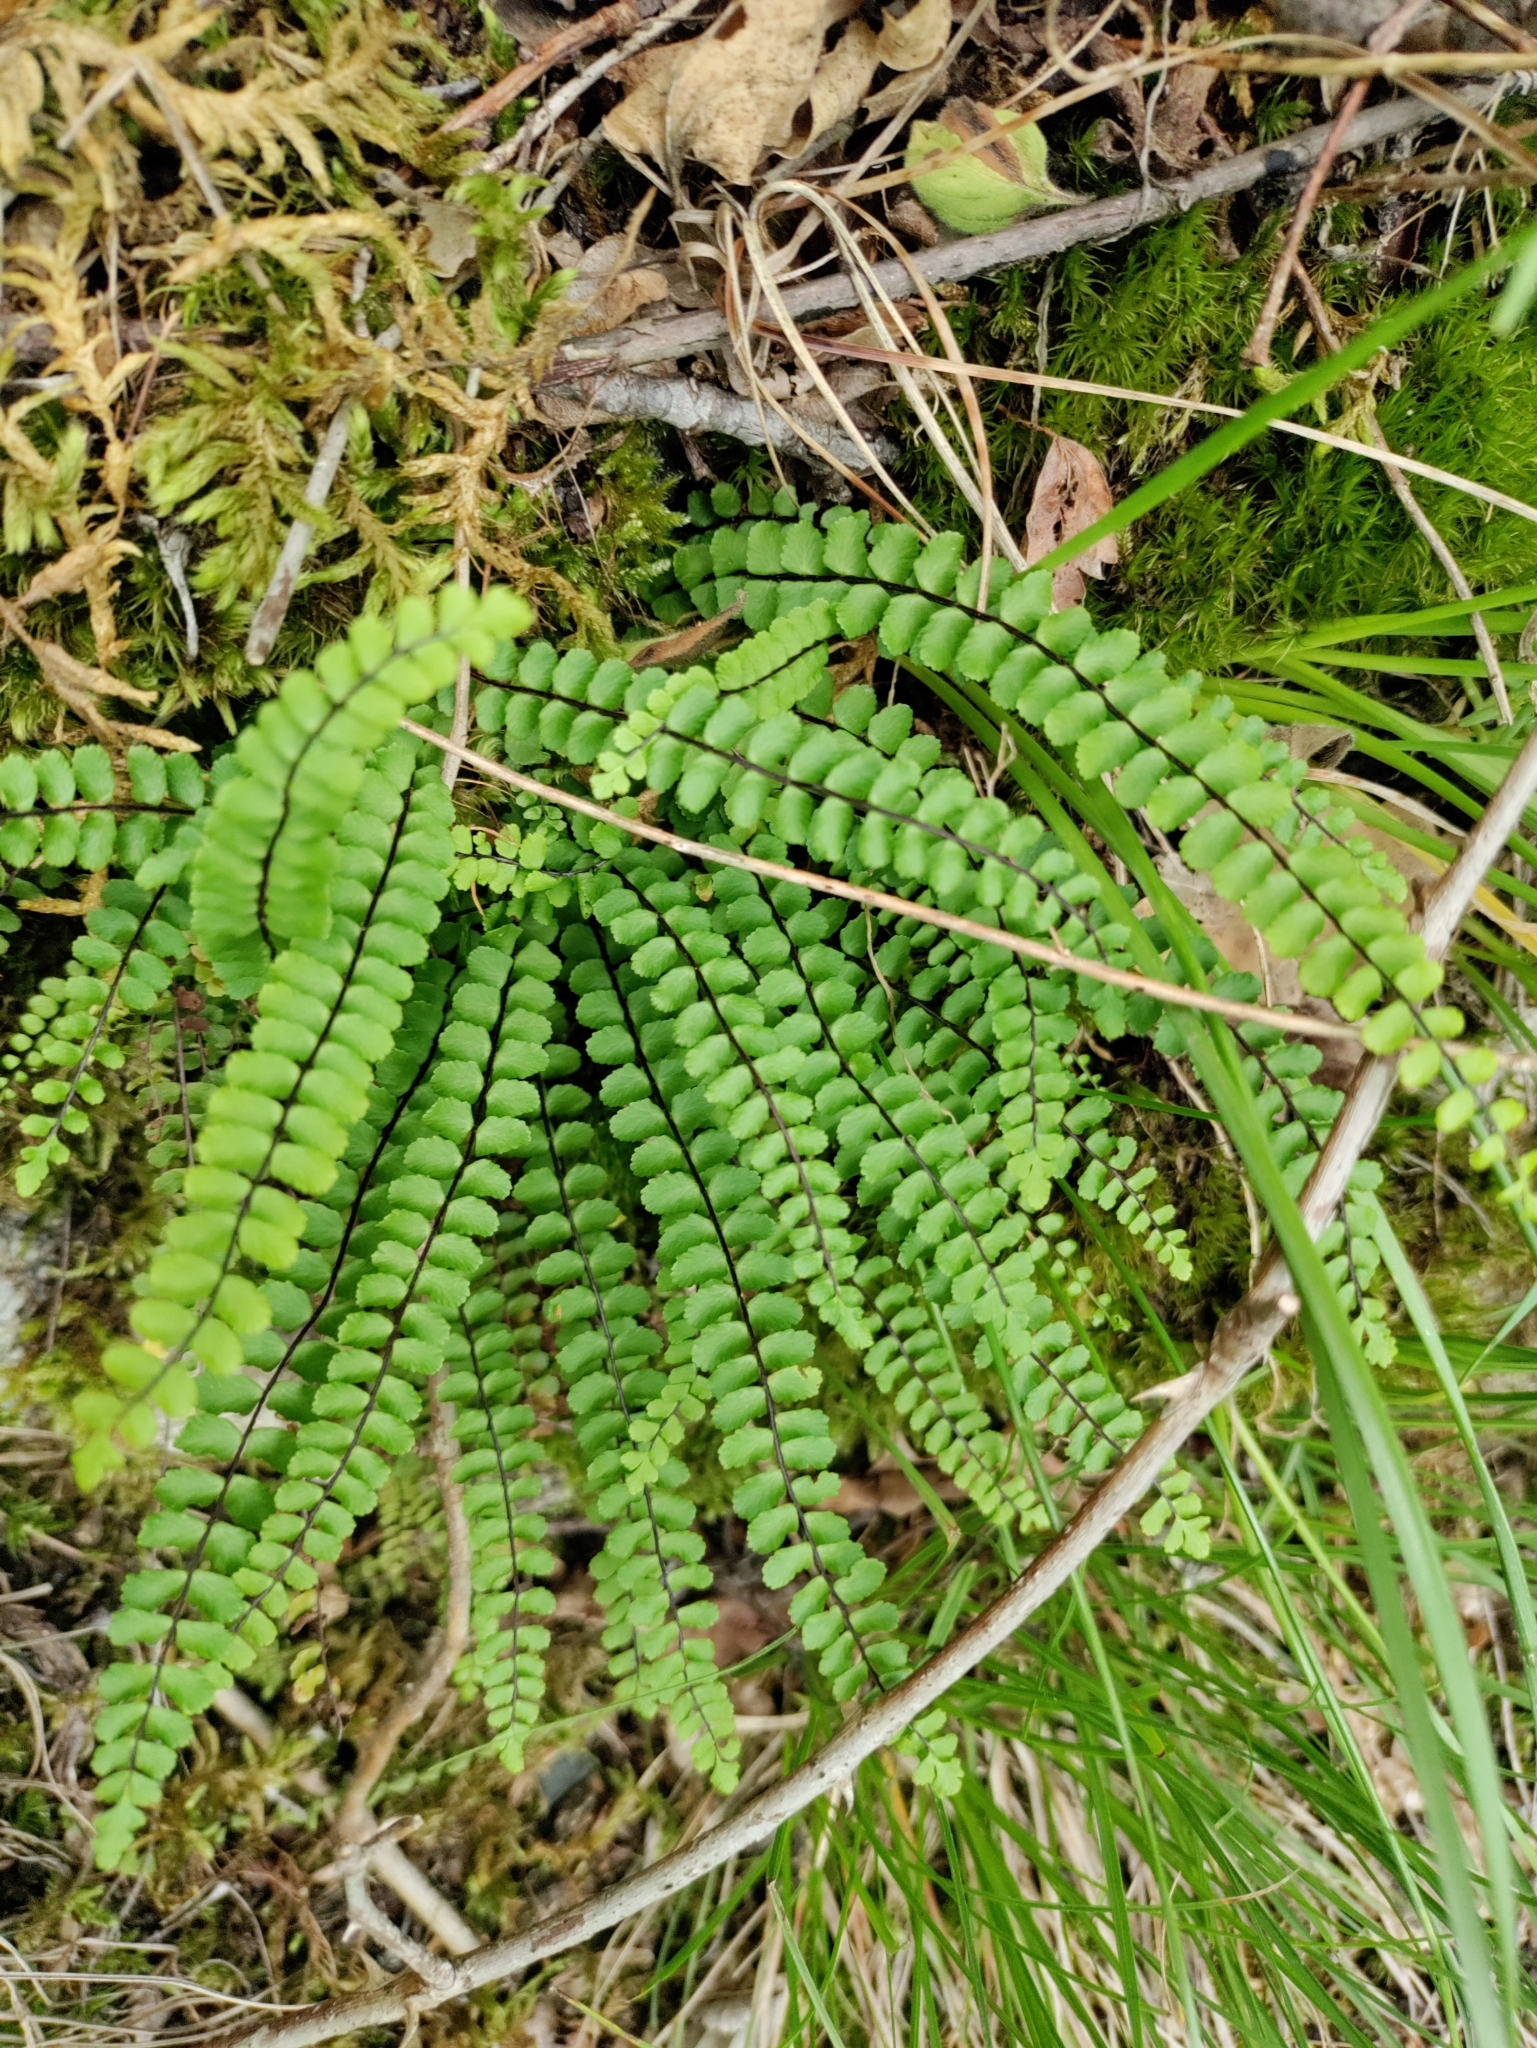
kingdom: Plantae
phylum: Tracheophyta
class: Polypodiopsida
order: Polypodiales
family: Aspleniaceae
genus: Asplenium
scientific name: Asplenium trichomanes
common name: Maidenhair spleenwort
